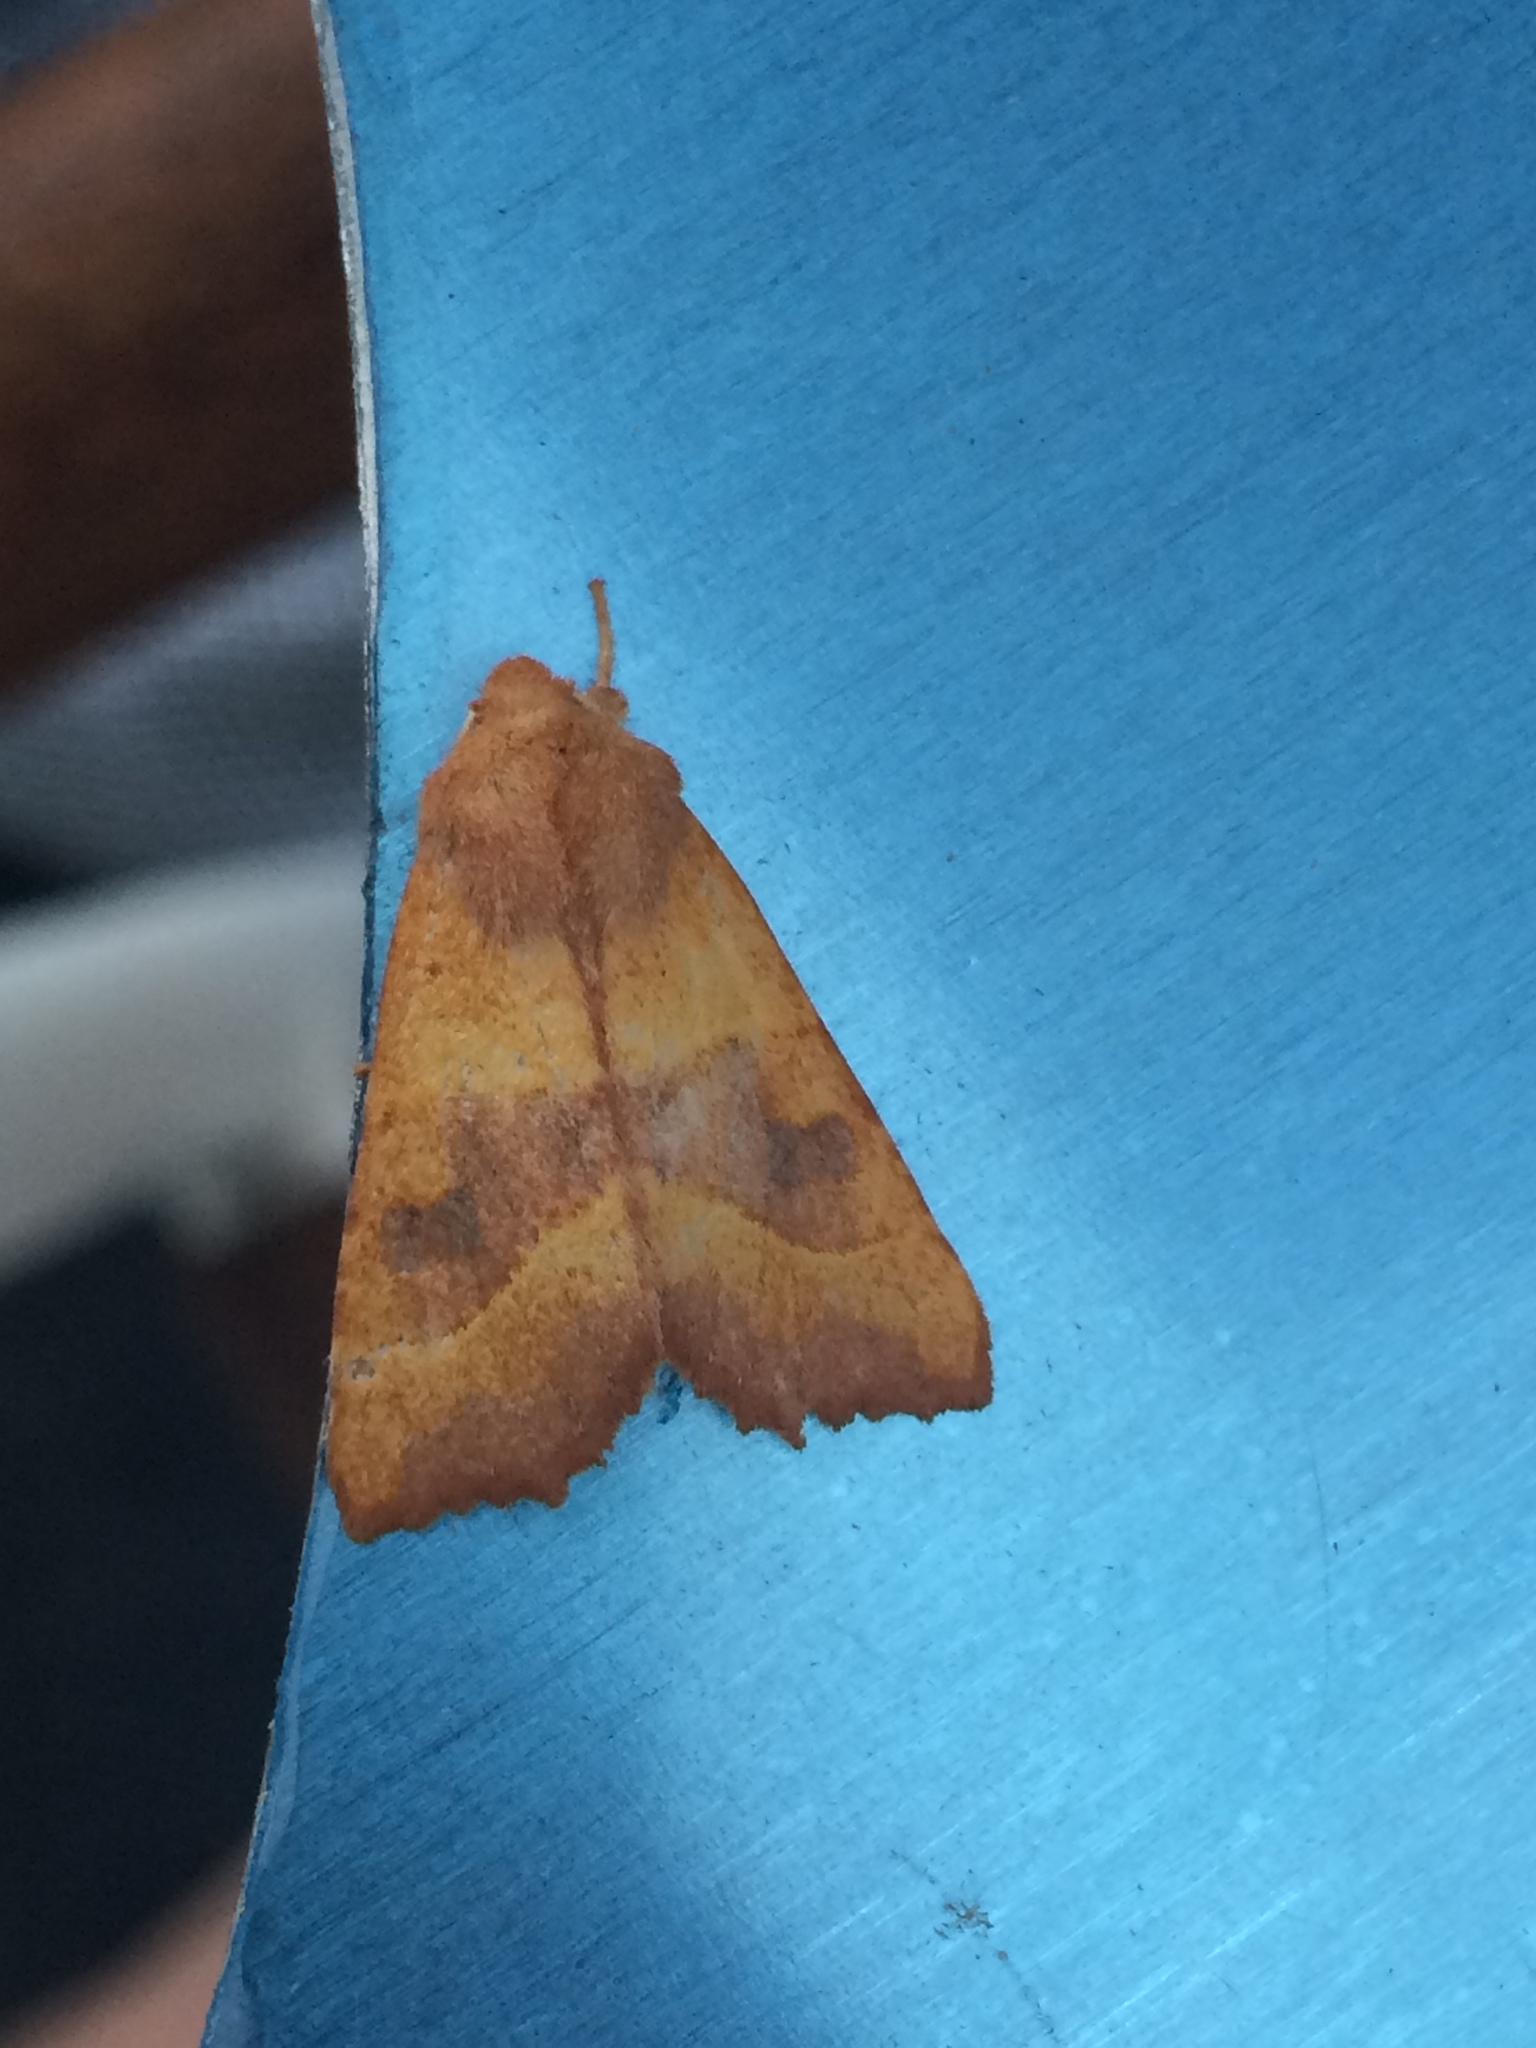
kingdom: Animalia
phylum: Arthropoda
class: Insecta
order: Lepidoptera
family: Noctuidae
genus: Atethmia
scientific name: Atethmia centrago
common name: Centre-barred sallow
